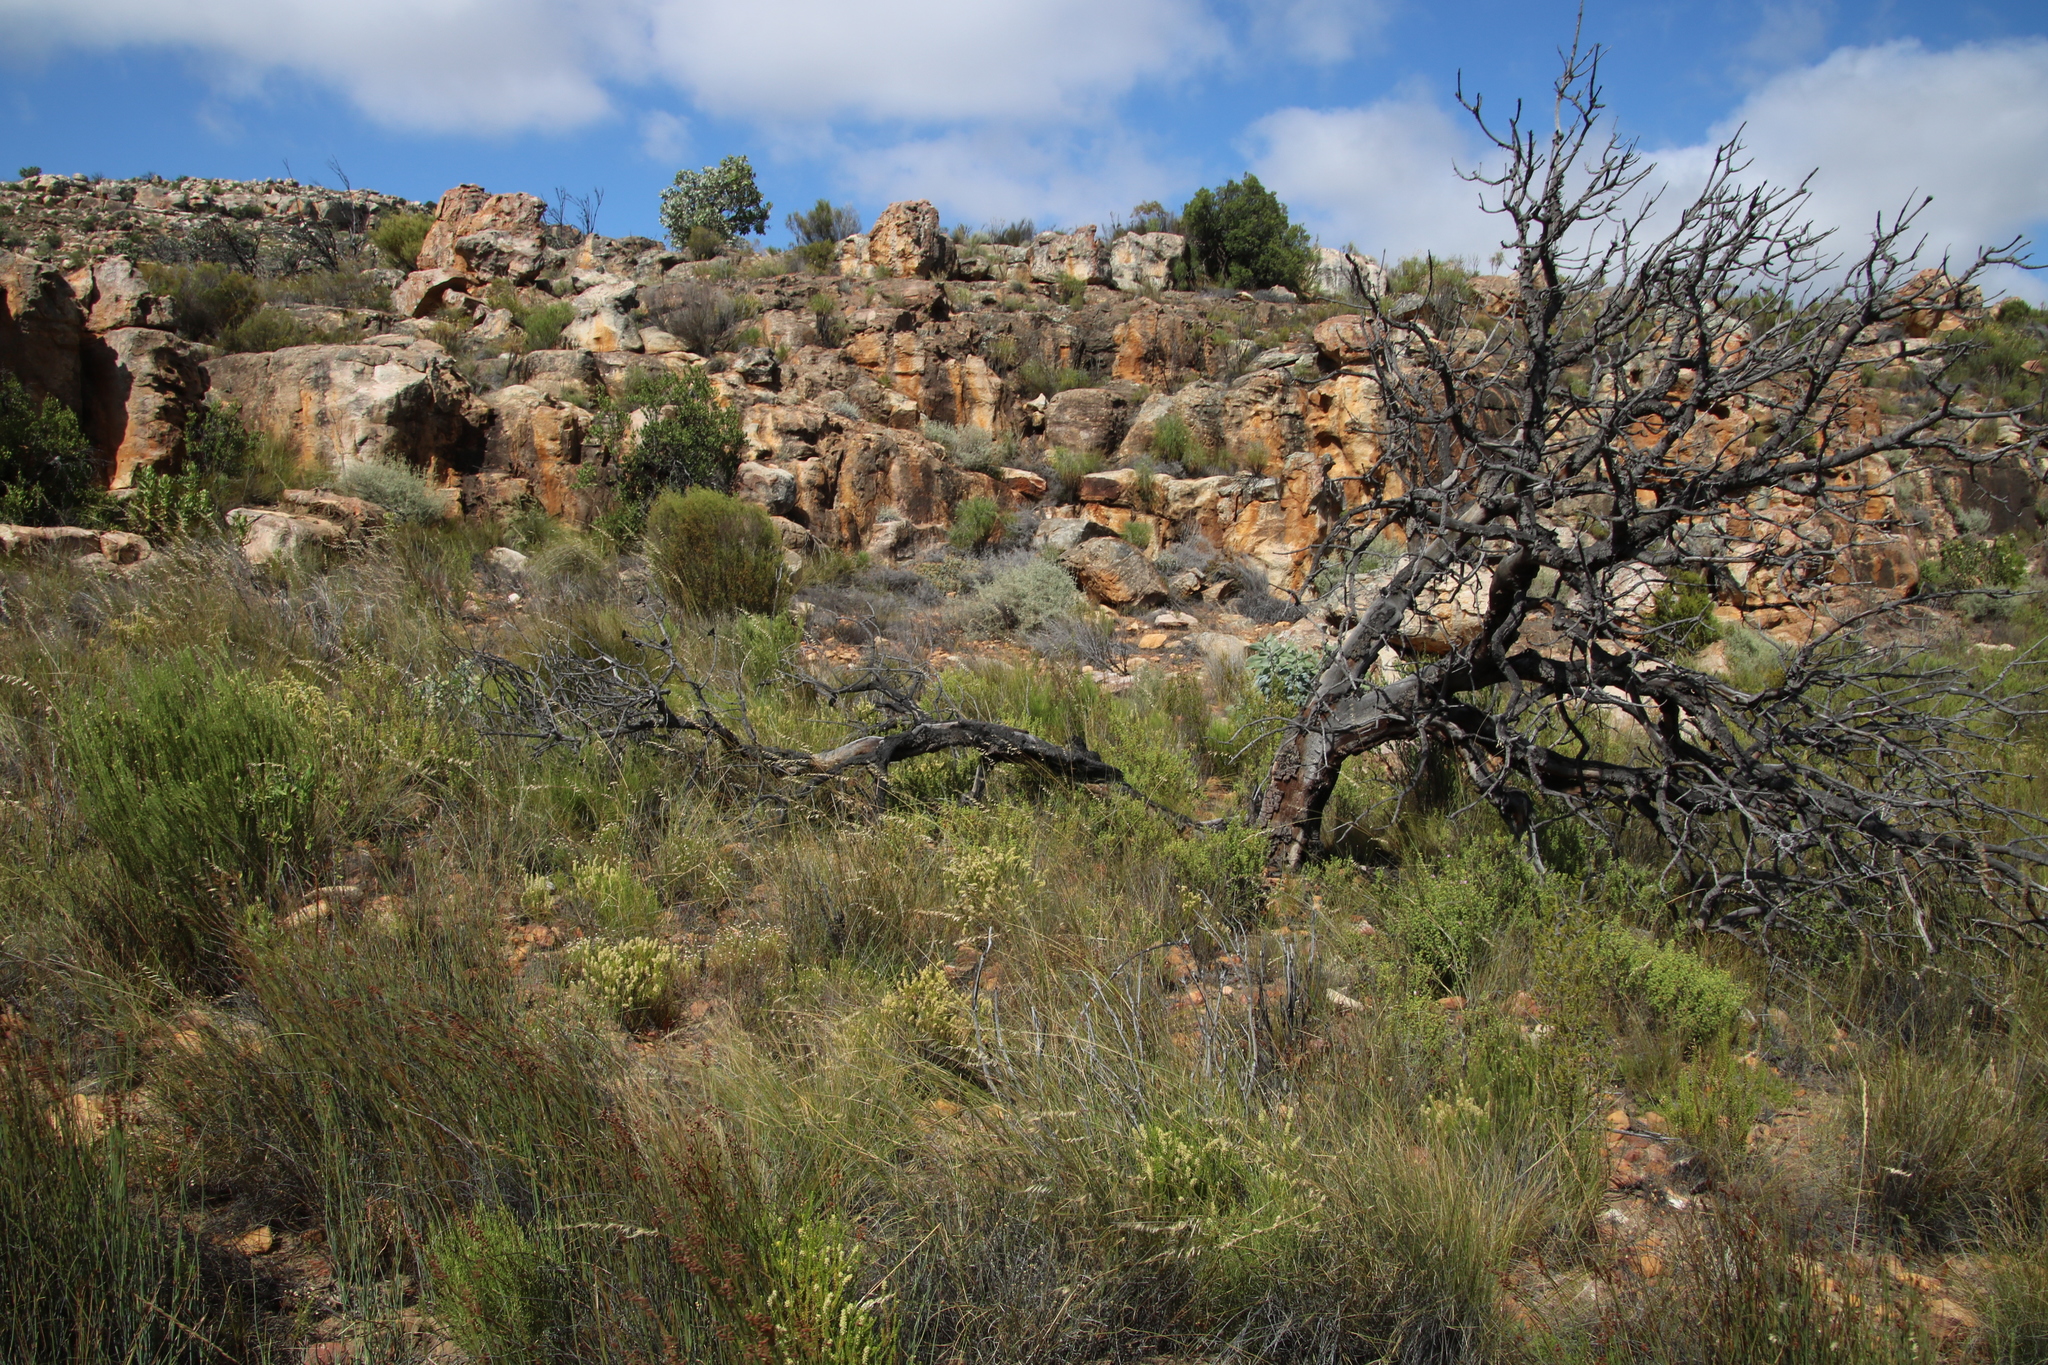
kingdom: Plantae
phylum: Tracheophyta
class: Magnoliopsida
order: Proteales
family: Proteaceae
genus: Protea
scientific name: Protea nitida
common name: Tree protea
